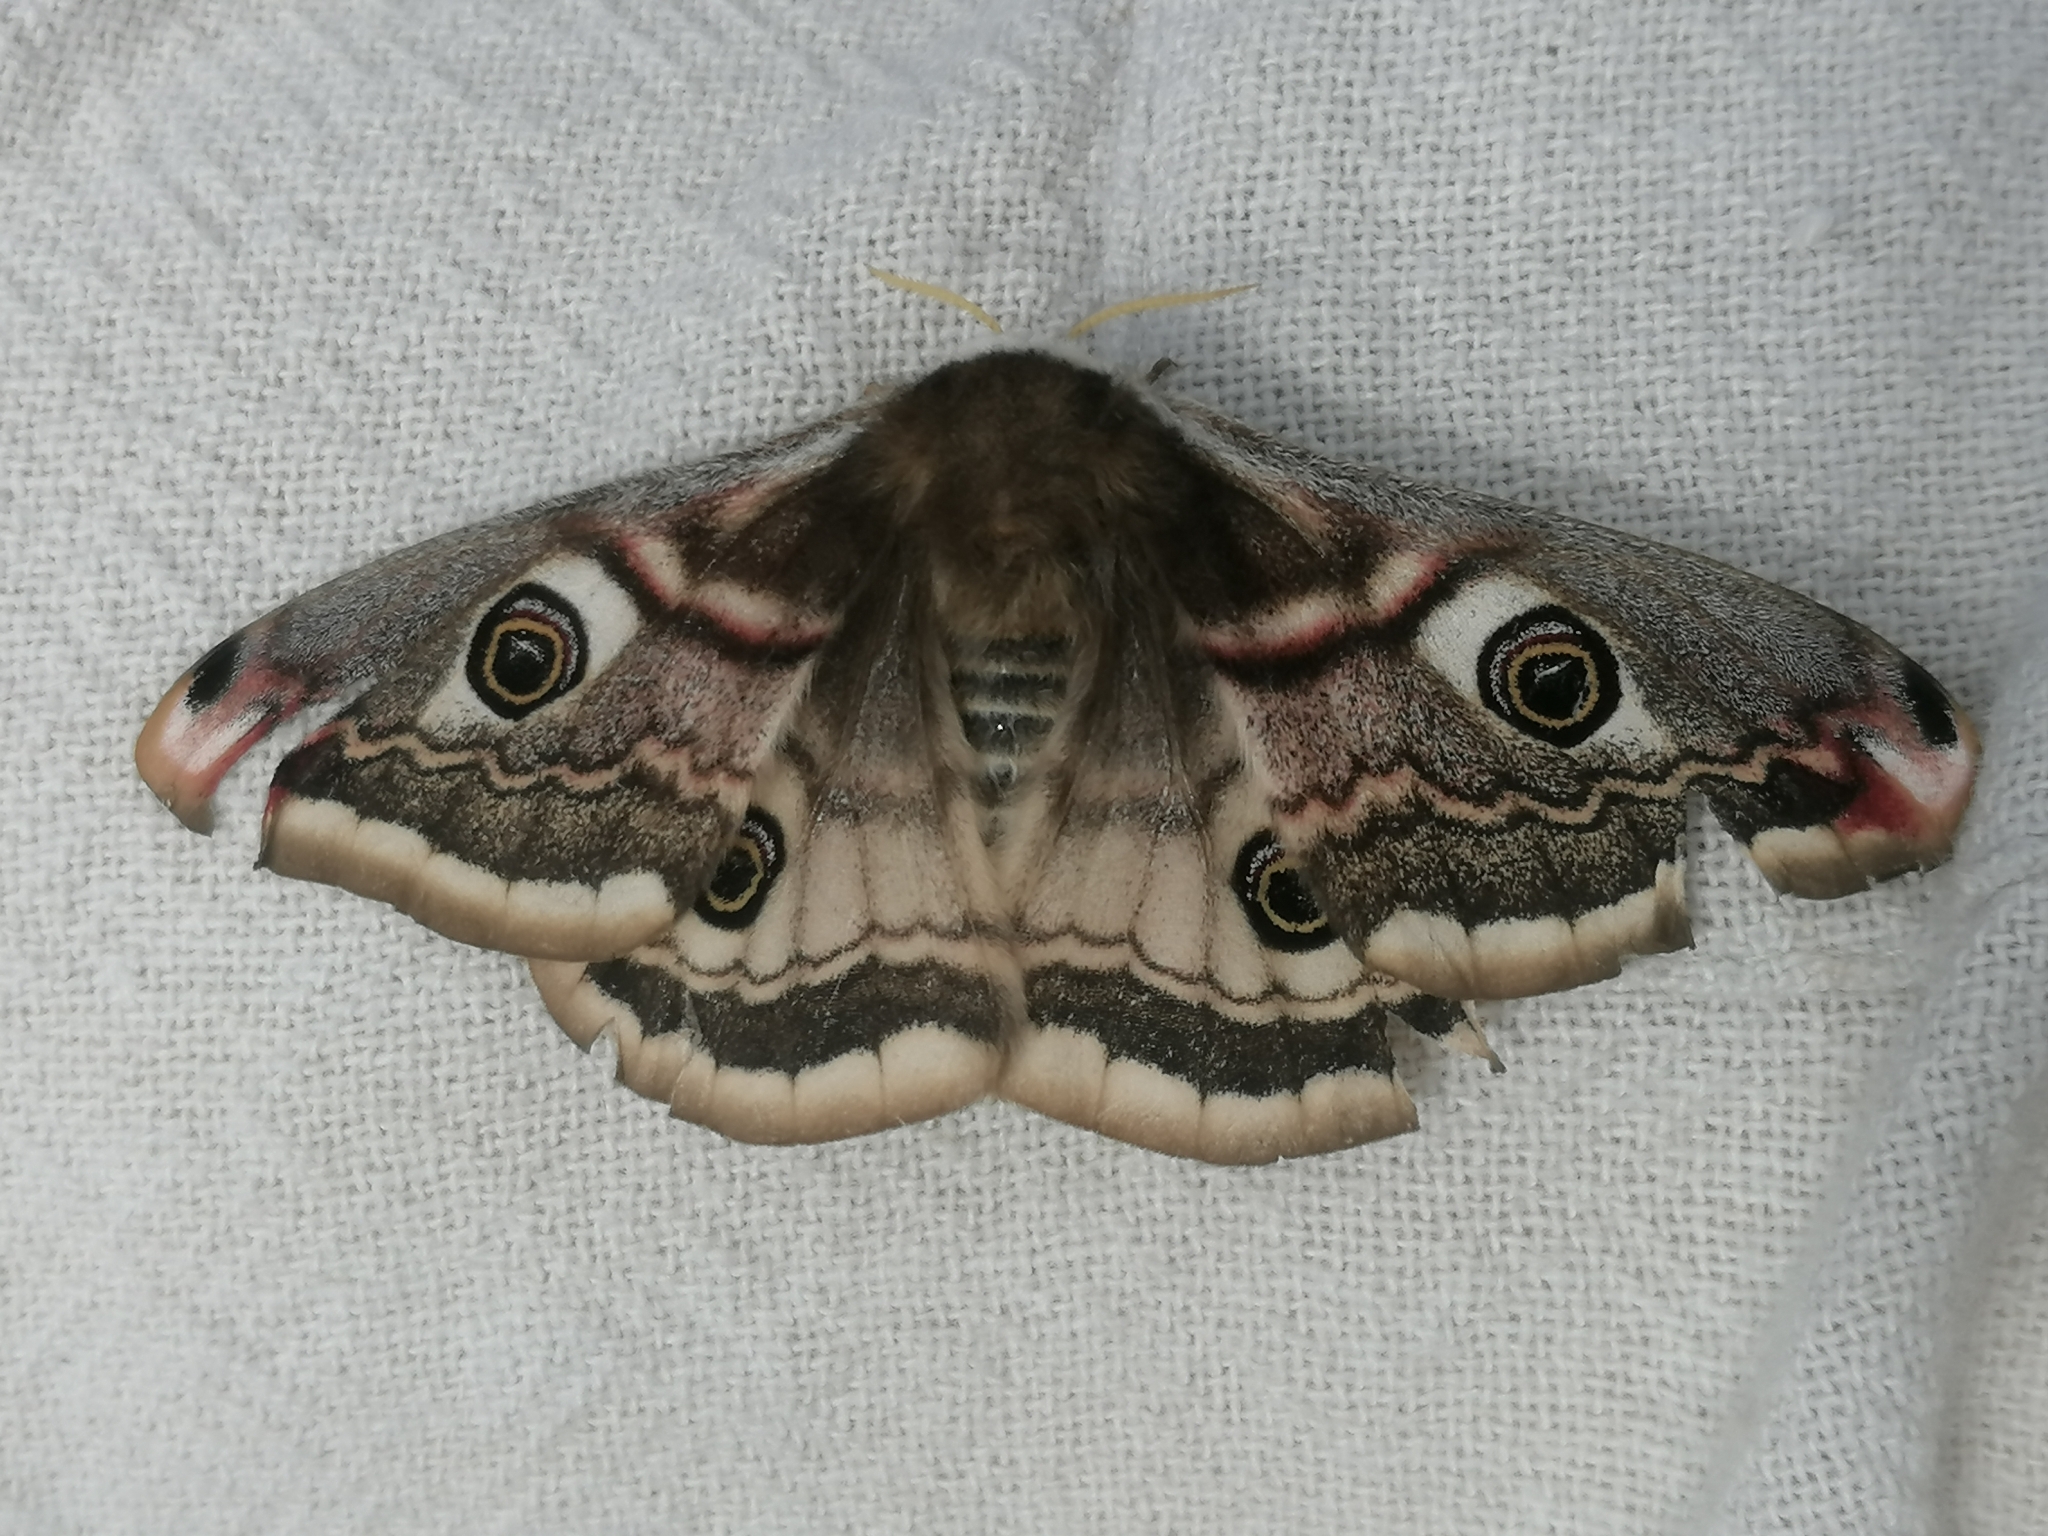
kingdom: Animalia
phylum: Arthropoda
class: Insecta
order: Lepidoptera
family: Saturniidae
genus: Saturnia
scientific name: Saturnia pavonia
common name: Emperor moth
